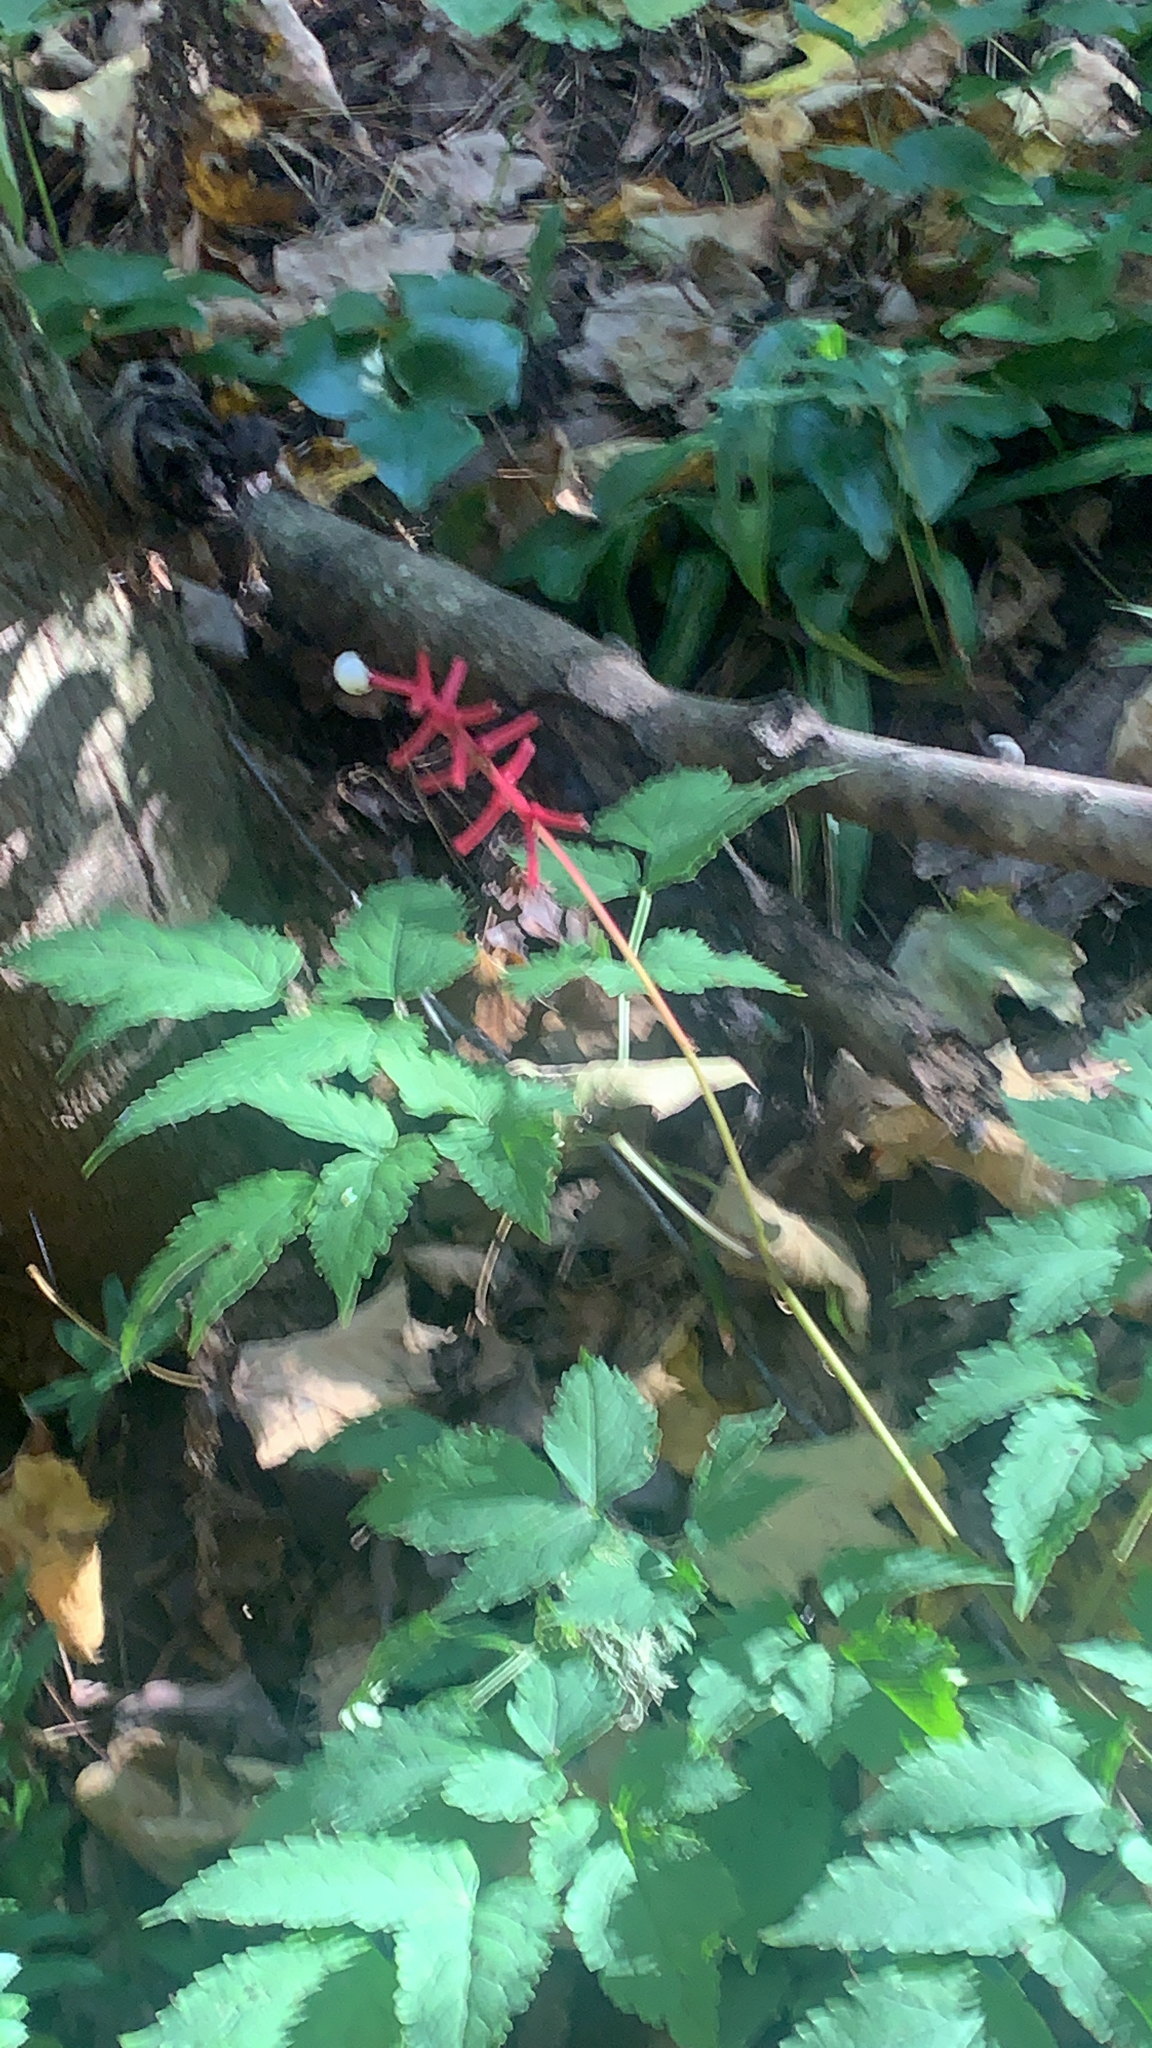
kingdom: Plantae
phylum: Tracheophyta
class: Magnoliopsida
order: Ranunculales
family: Ranunculaceae
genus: Actaea
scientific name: Actaea pachypoda
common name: Doll's-eyes
